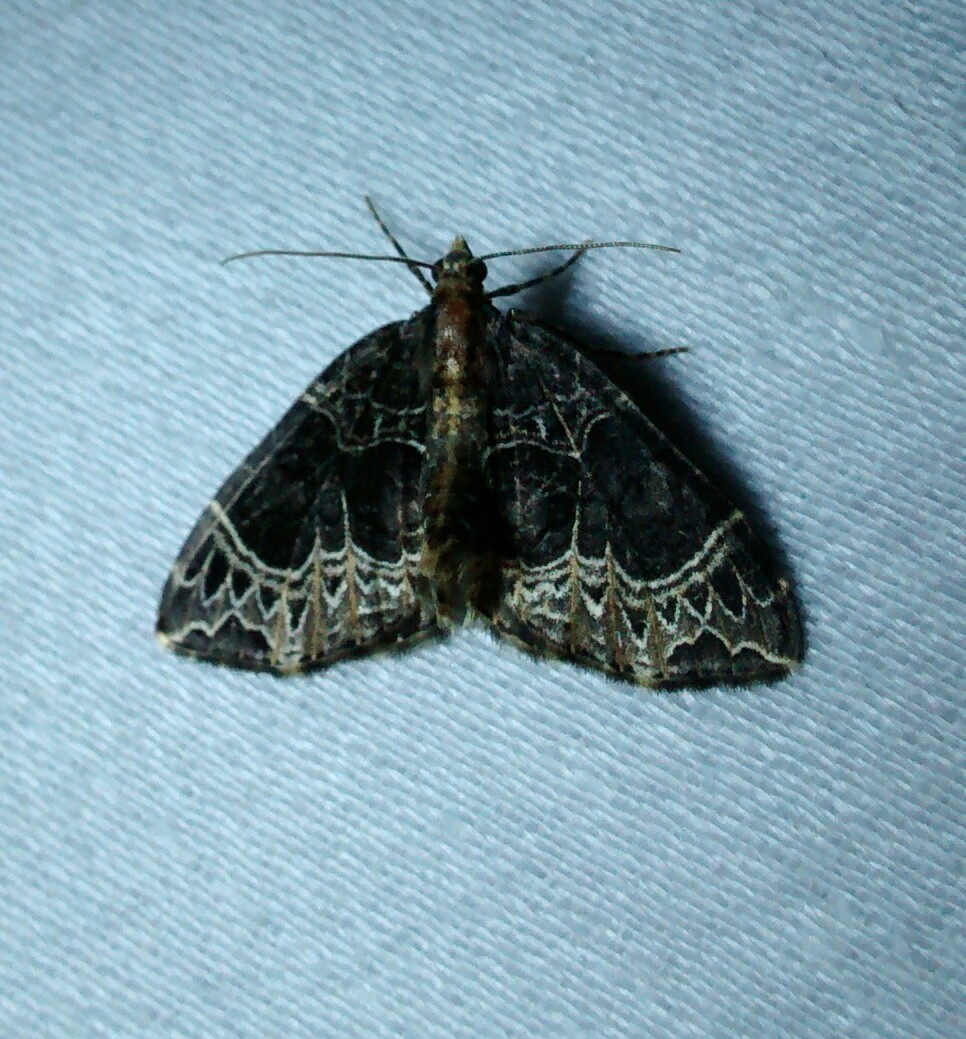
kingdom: Animalia
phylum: Arthropoda
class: Insecta
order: Lepidoptera
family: Geometridae
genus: Ecliptopera
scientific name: Ecliptopera silaceata
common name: Small phoenix
